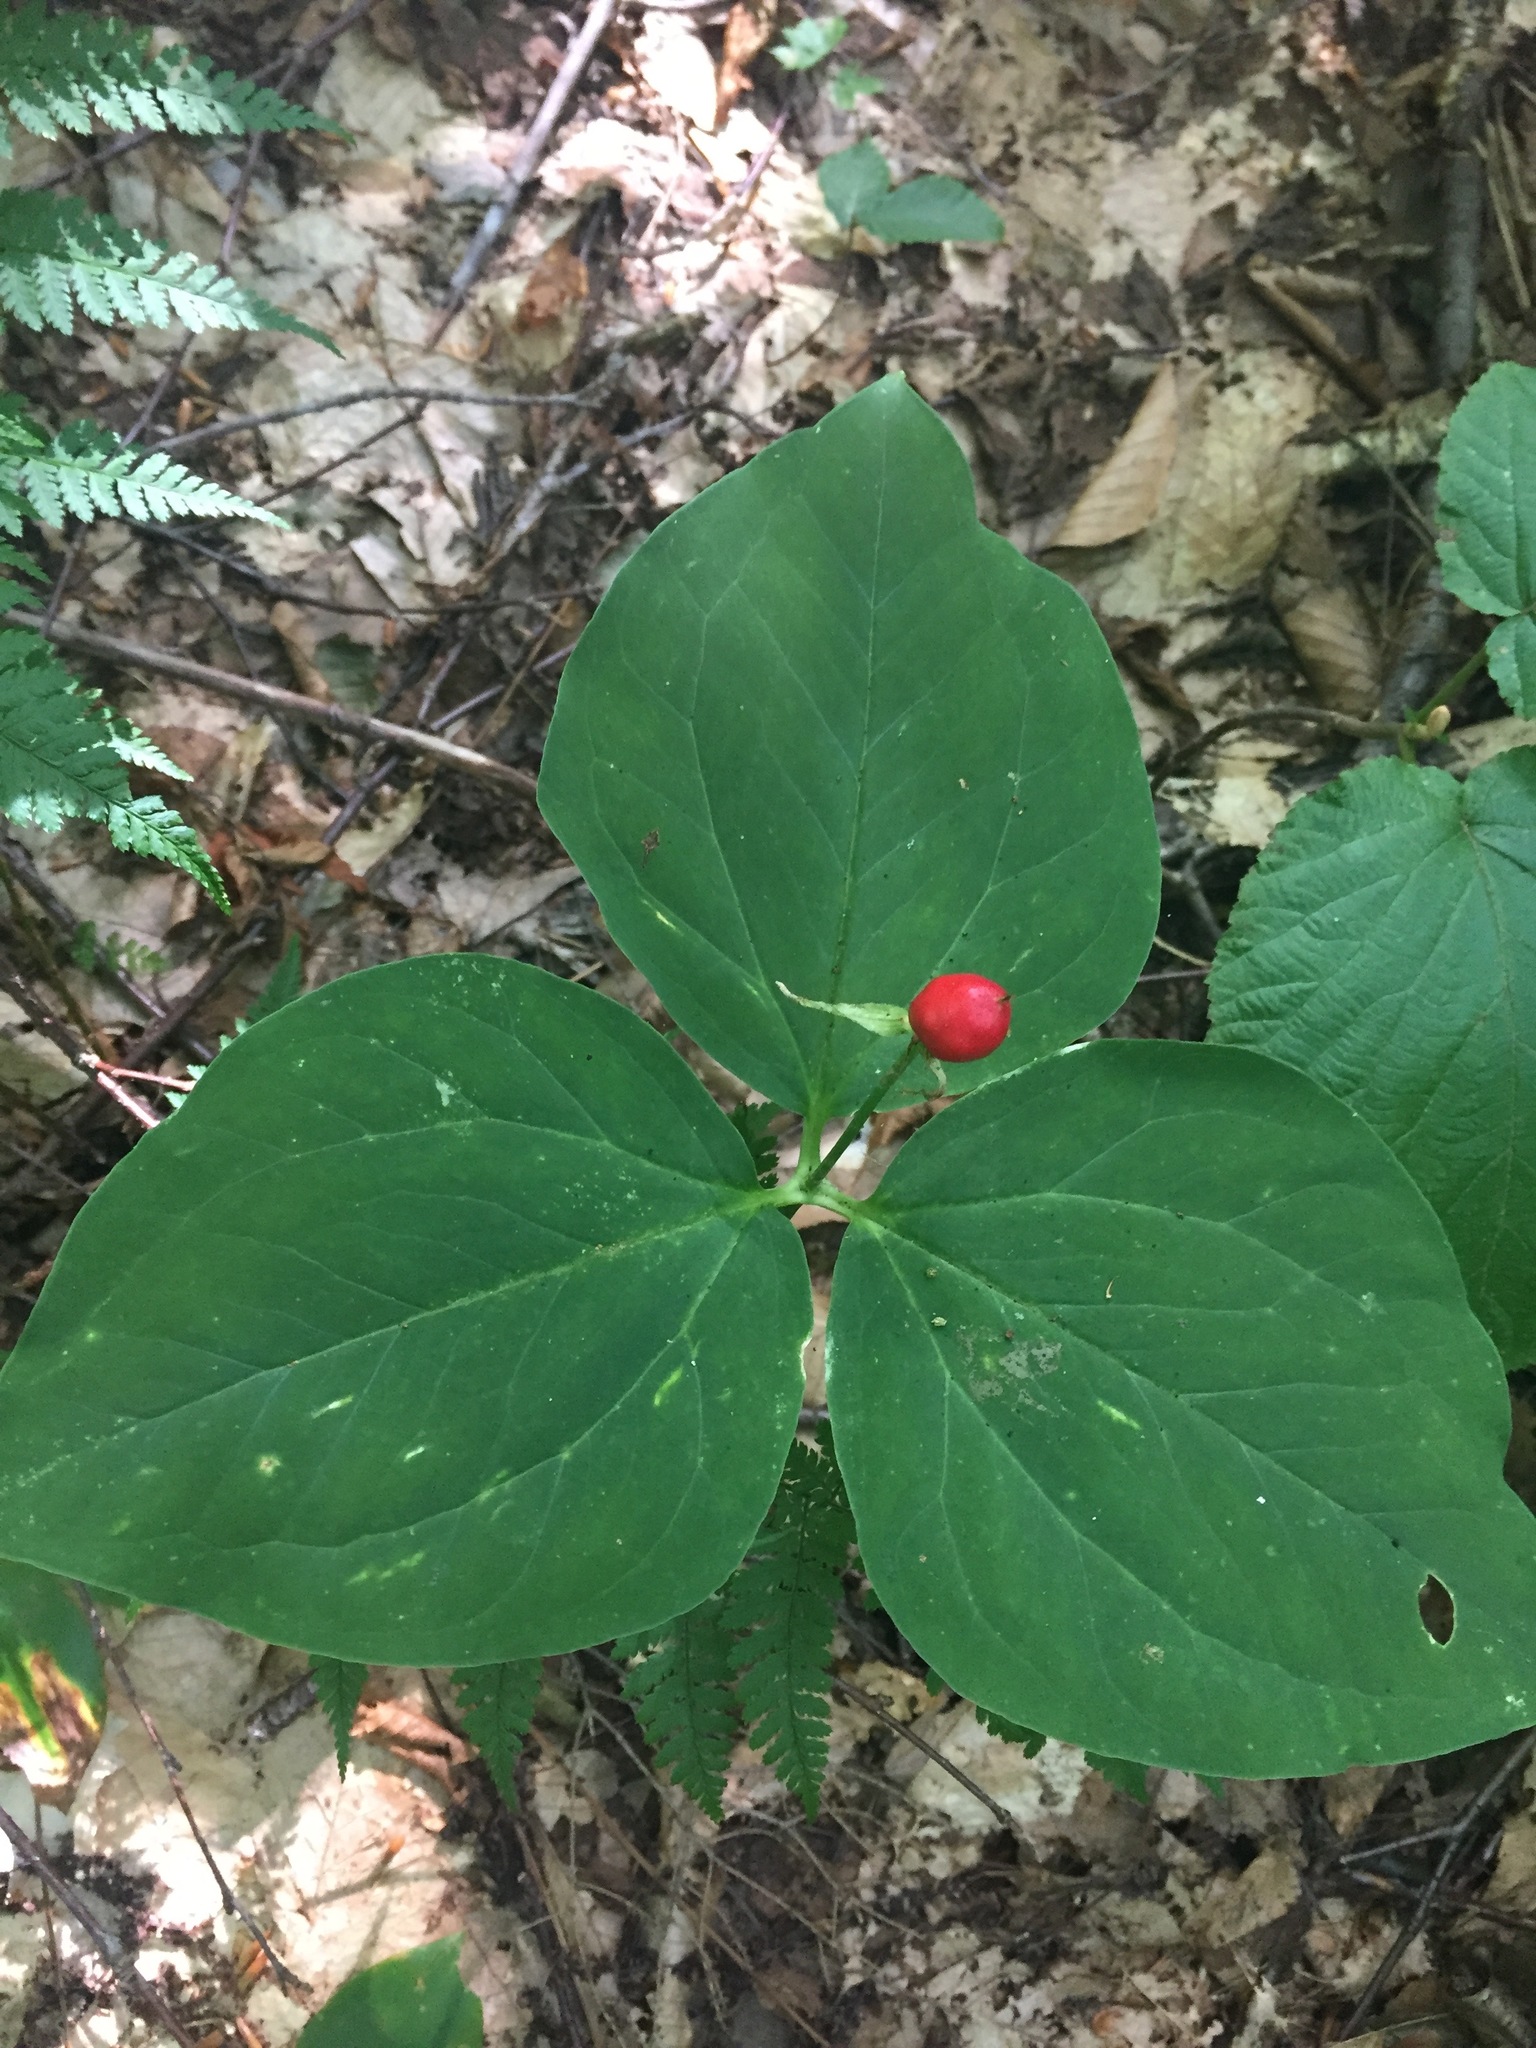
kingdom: Plantae
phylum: Tracheophyta
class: Liliopsida
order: Liliales
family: Melanthiaceae
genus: Trillium
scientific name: Trillium undulatum
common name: Paint trillium
